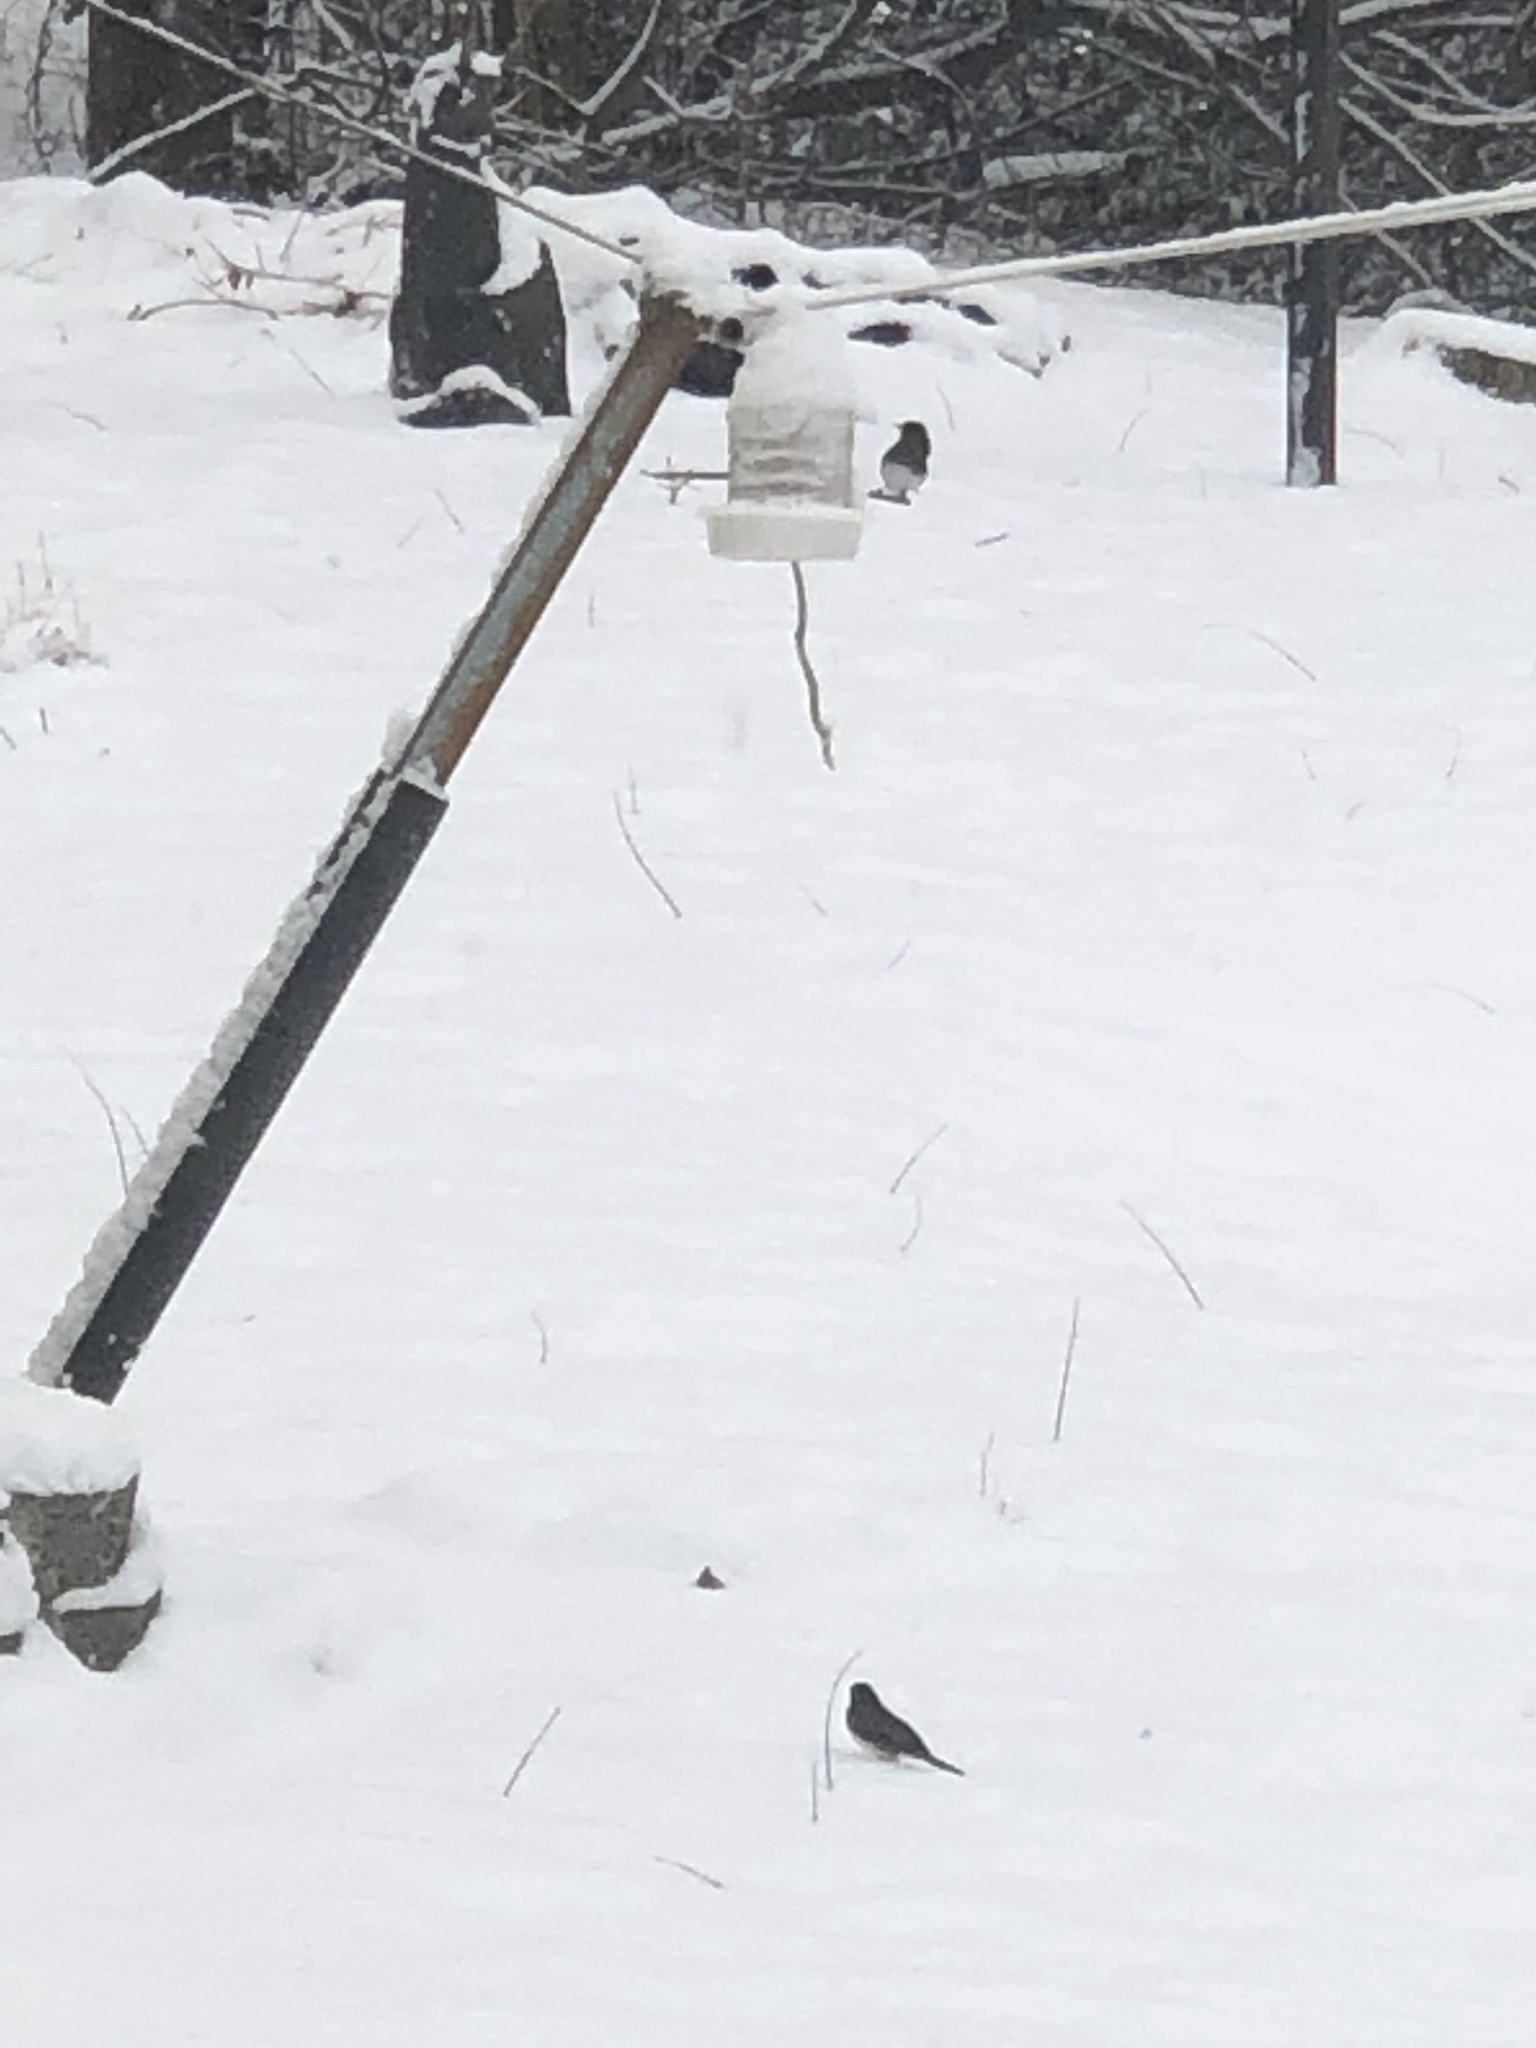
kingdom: Animalia
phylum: Chordata
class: Aves
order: Passeriformes
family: Passerellidae
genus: Junco
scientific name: Junco hyemalis
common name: Dark-eyed junco
